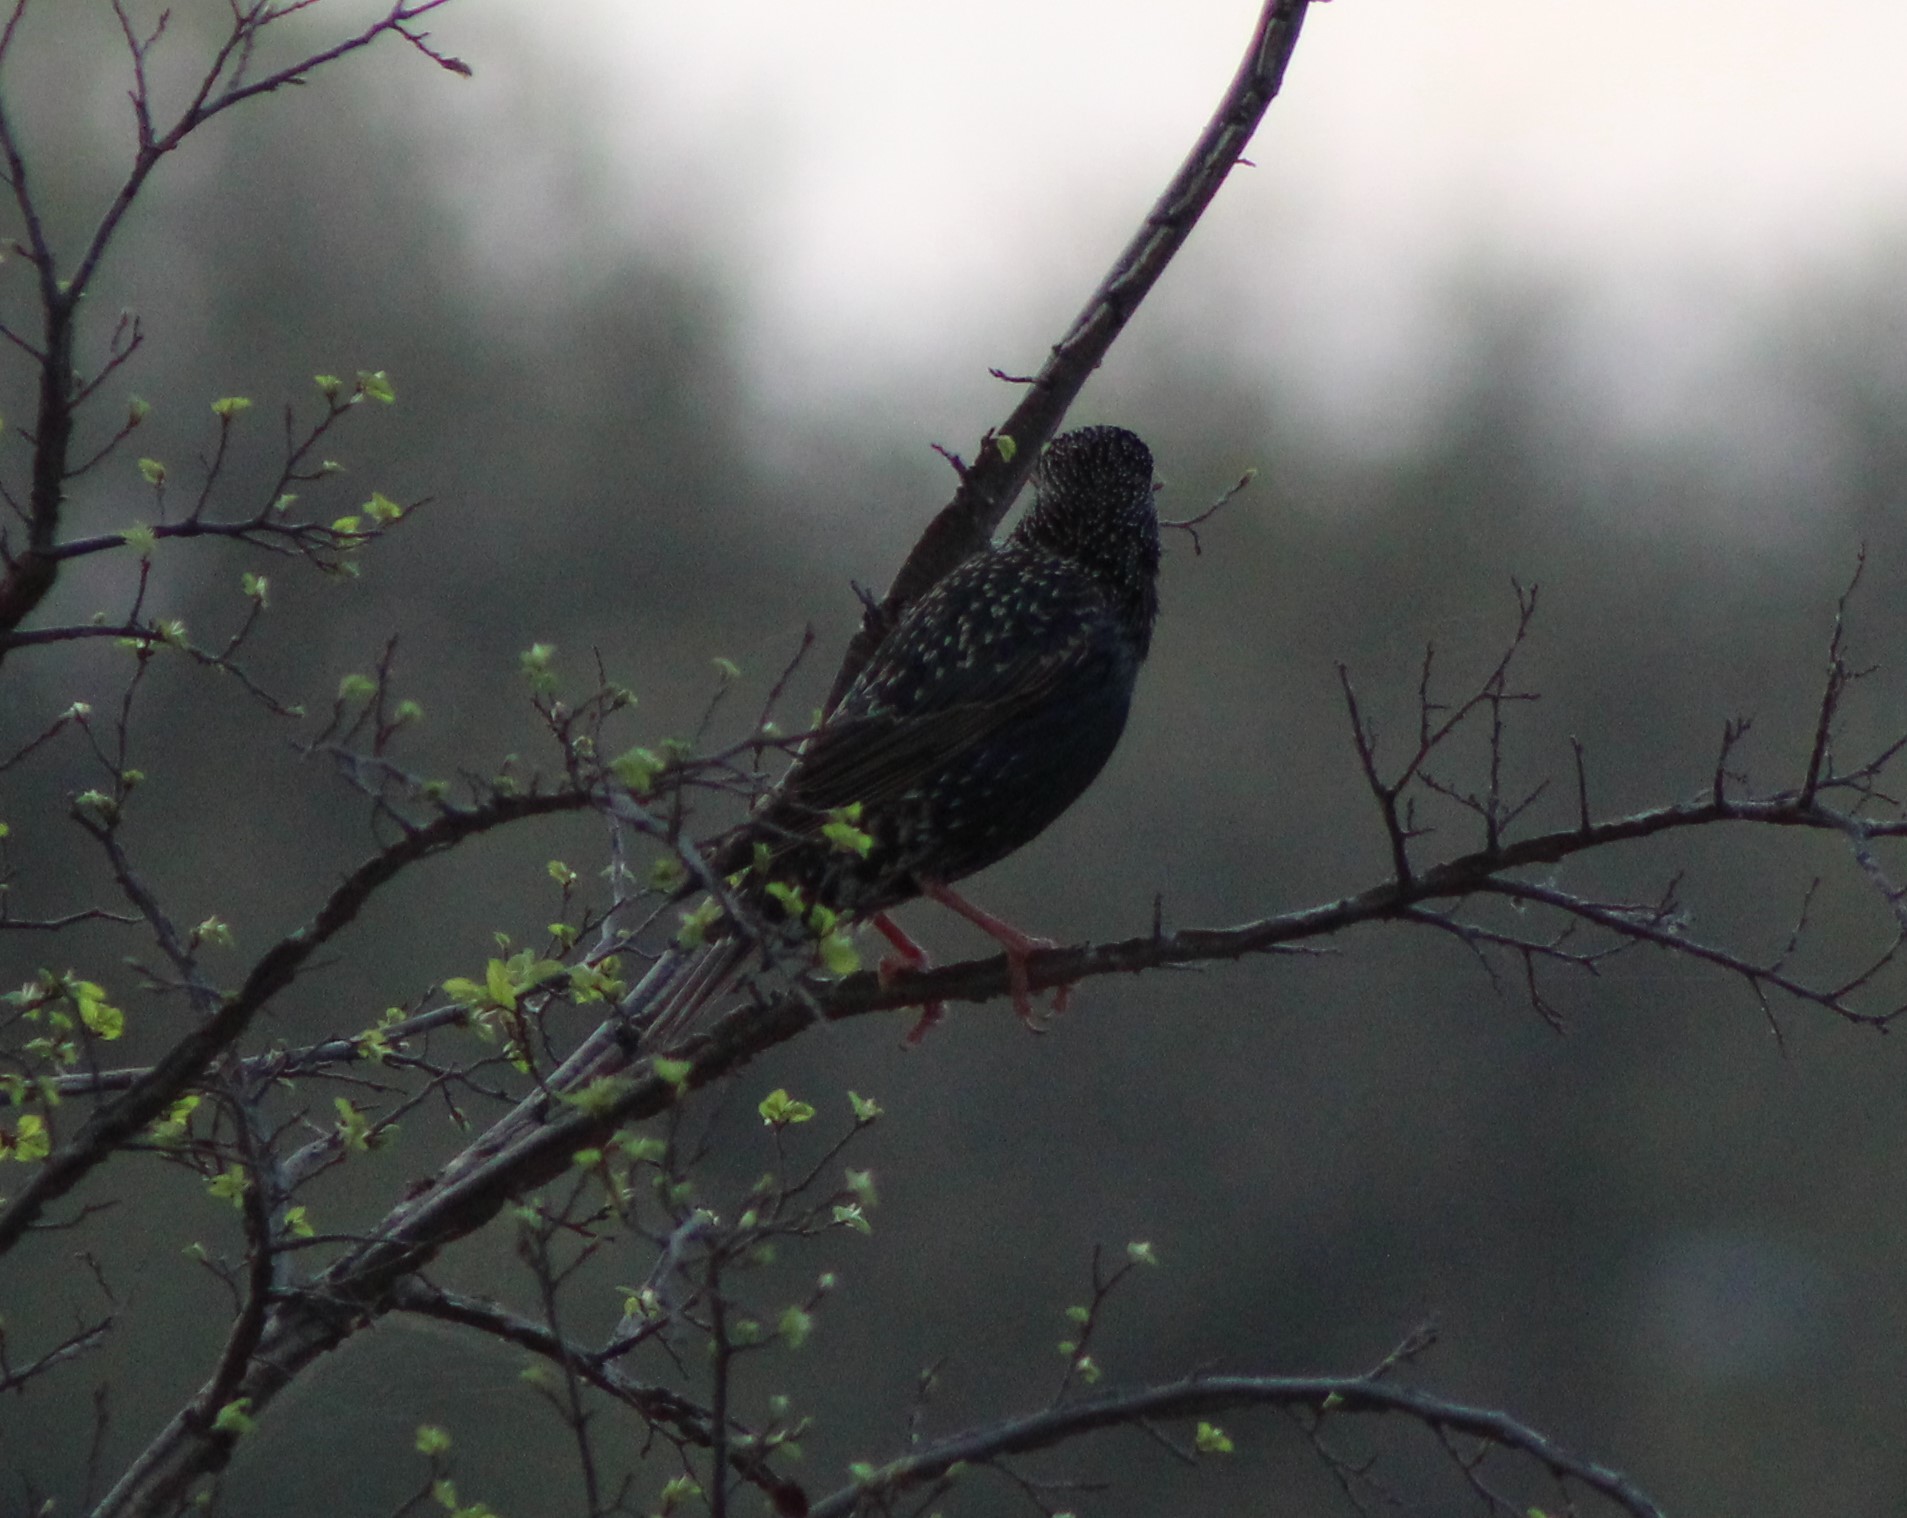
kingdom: Animalia
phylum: Chordata
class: Aves
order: Passeriformes
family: Sturnidae
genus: Sturnus
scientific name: Sturnus vulgaris
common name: Common starling
